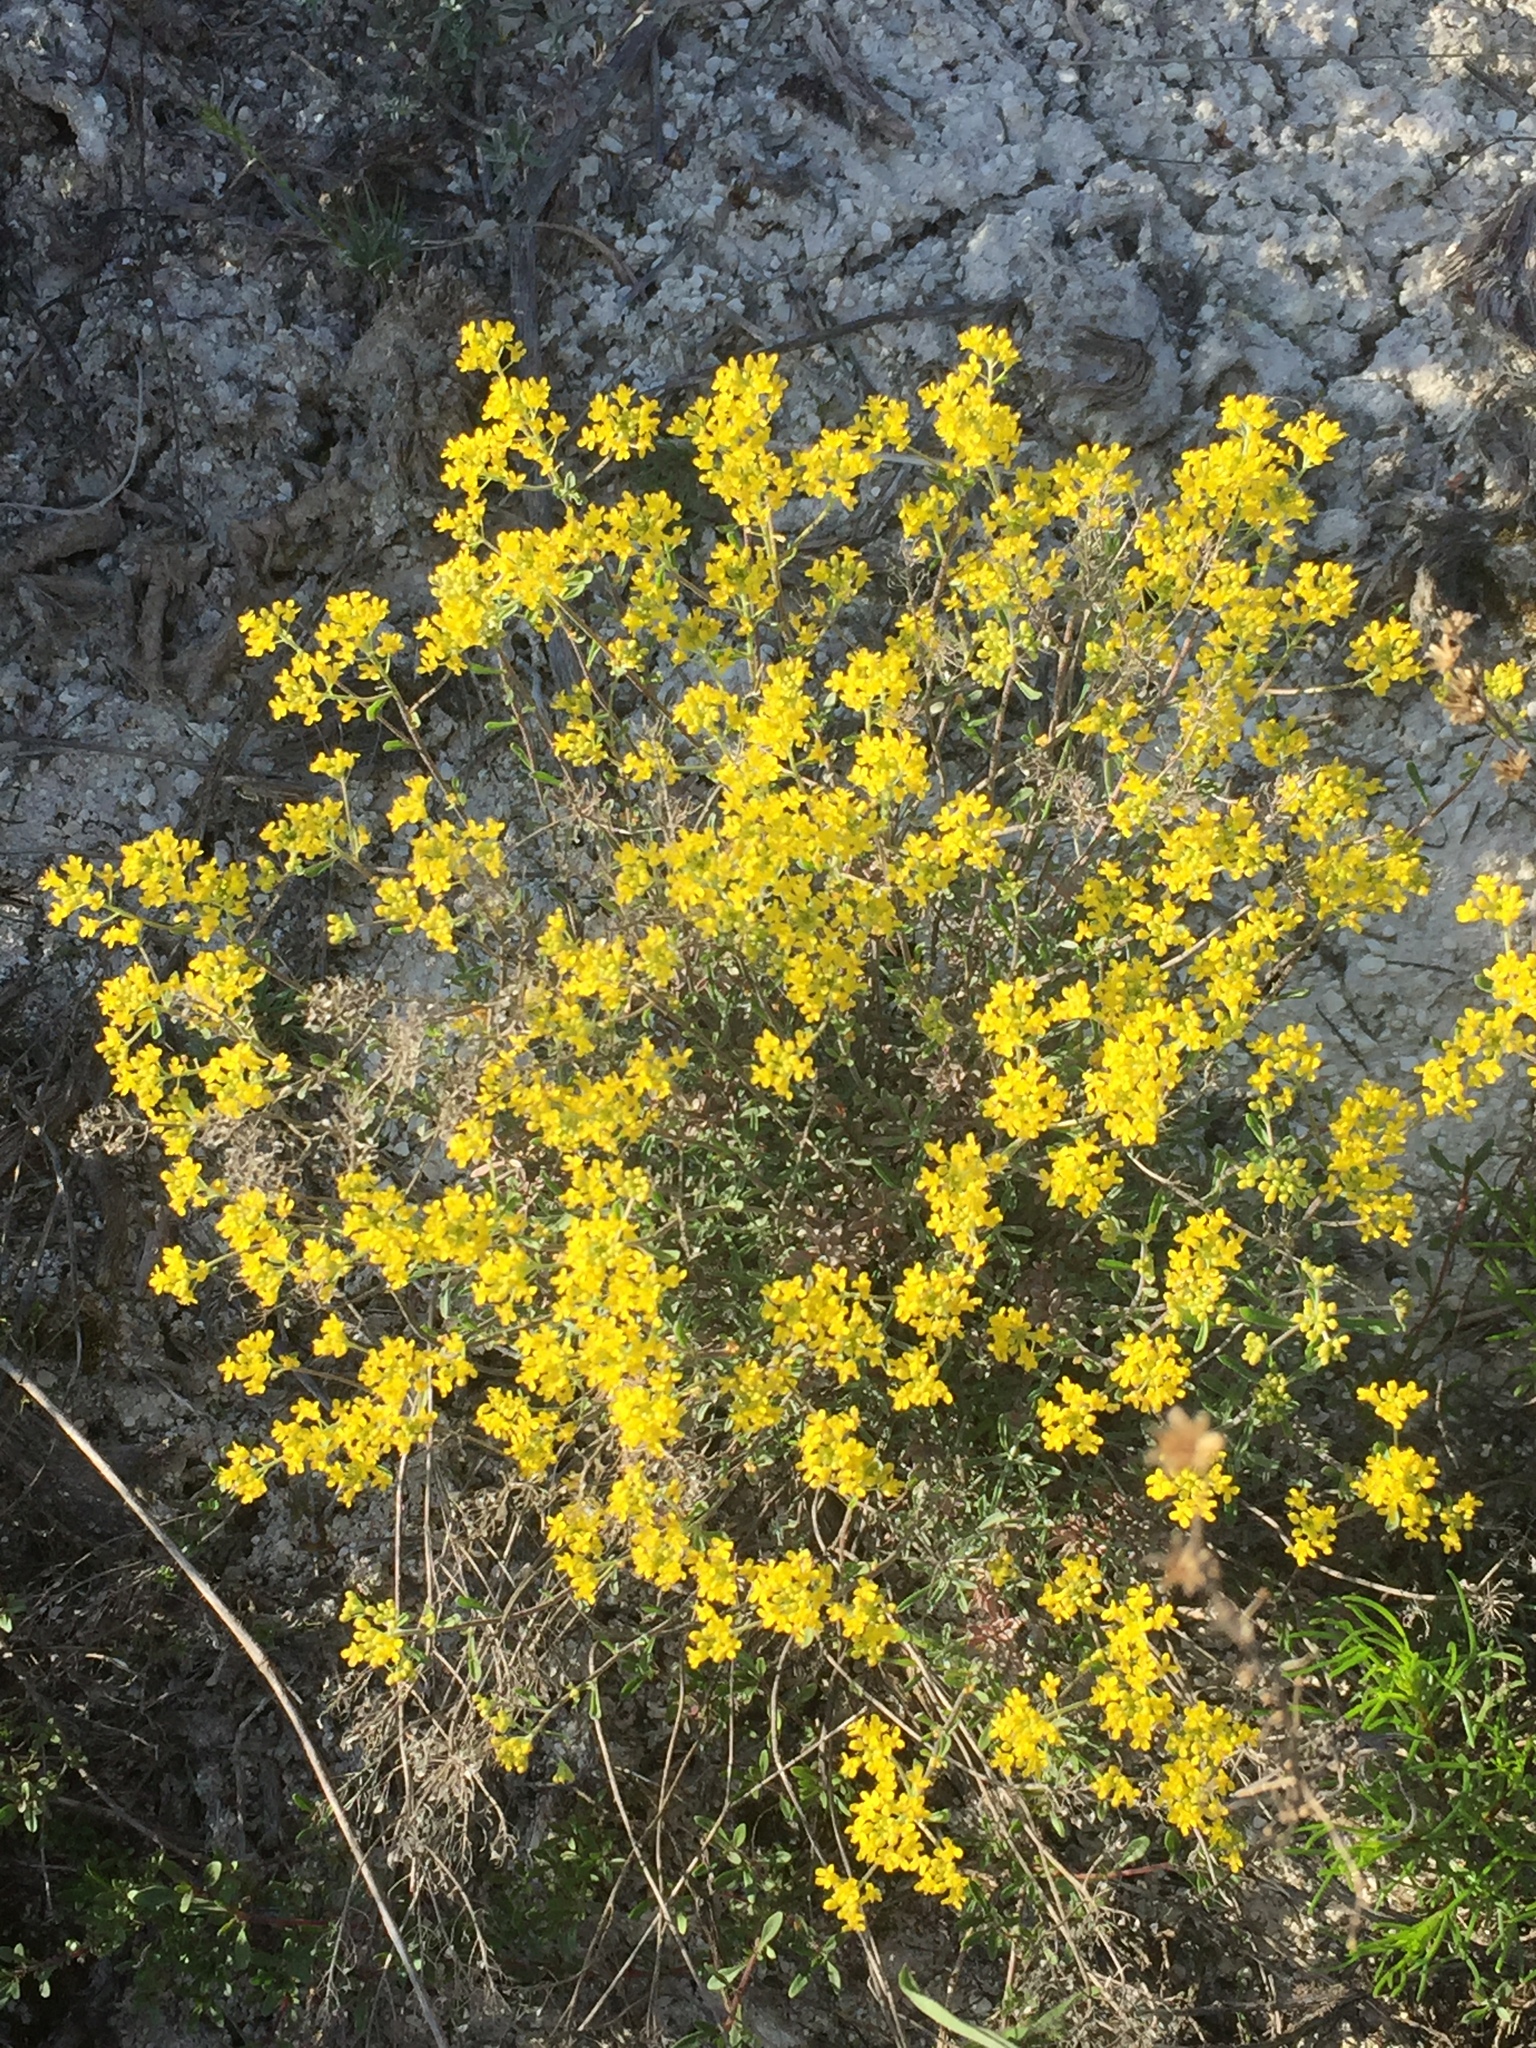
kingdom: Plantae
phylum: Tracheophyta
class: Magnoliopsida
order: Brassicales
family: Brassicaceae
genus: Odontarrhena
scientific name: Odontarrhena tortuosa
